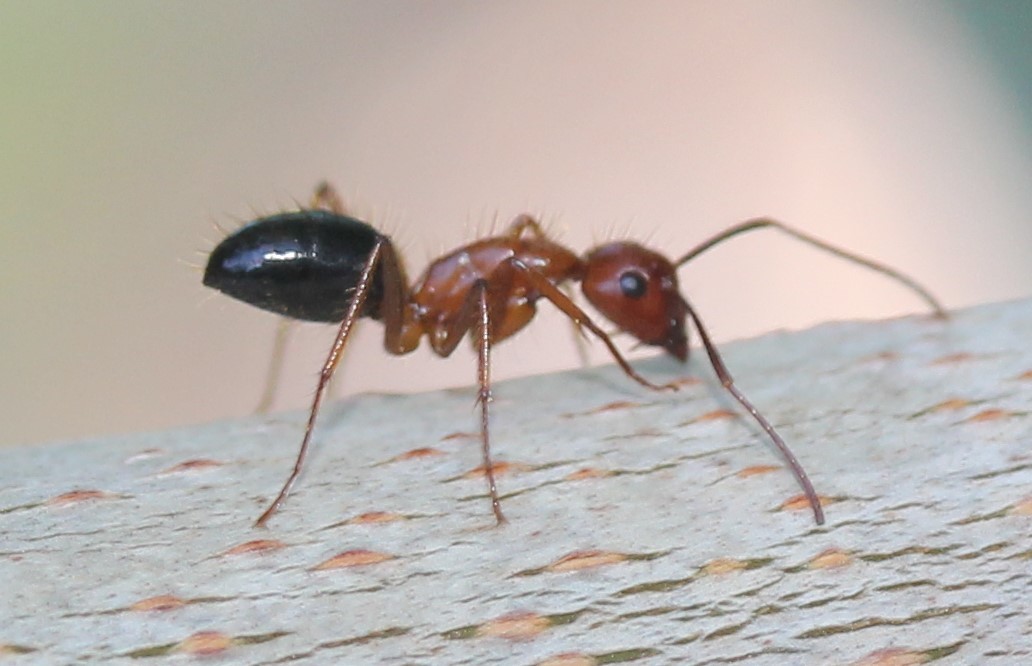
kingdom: Animalia
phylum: Arthropoda
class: Insecta
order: Hymenoptera
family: Formicidae
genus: Camponotus
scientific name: Camponotus floridanus
